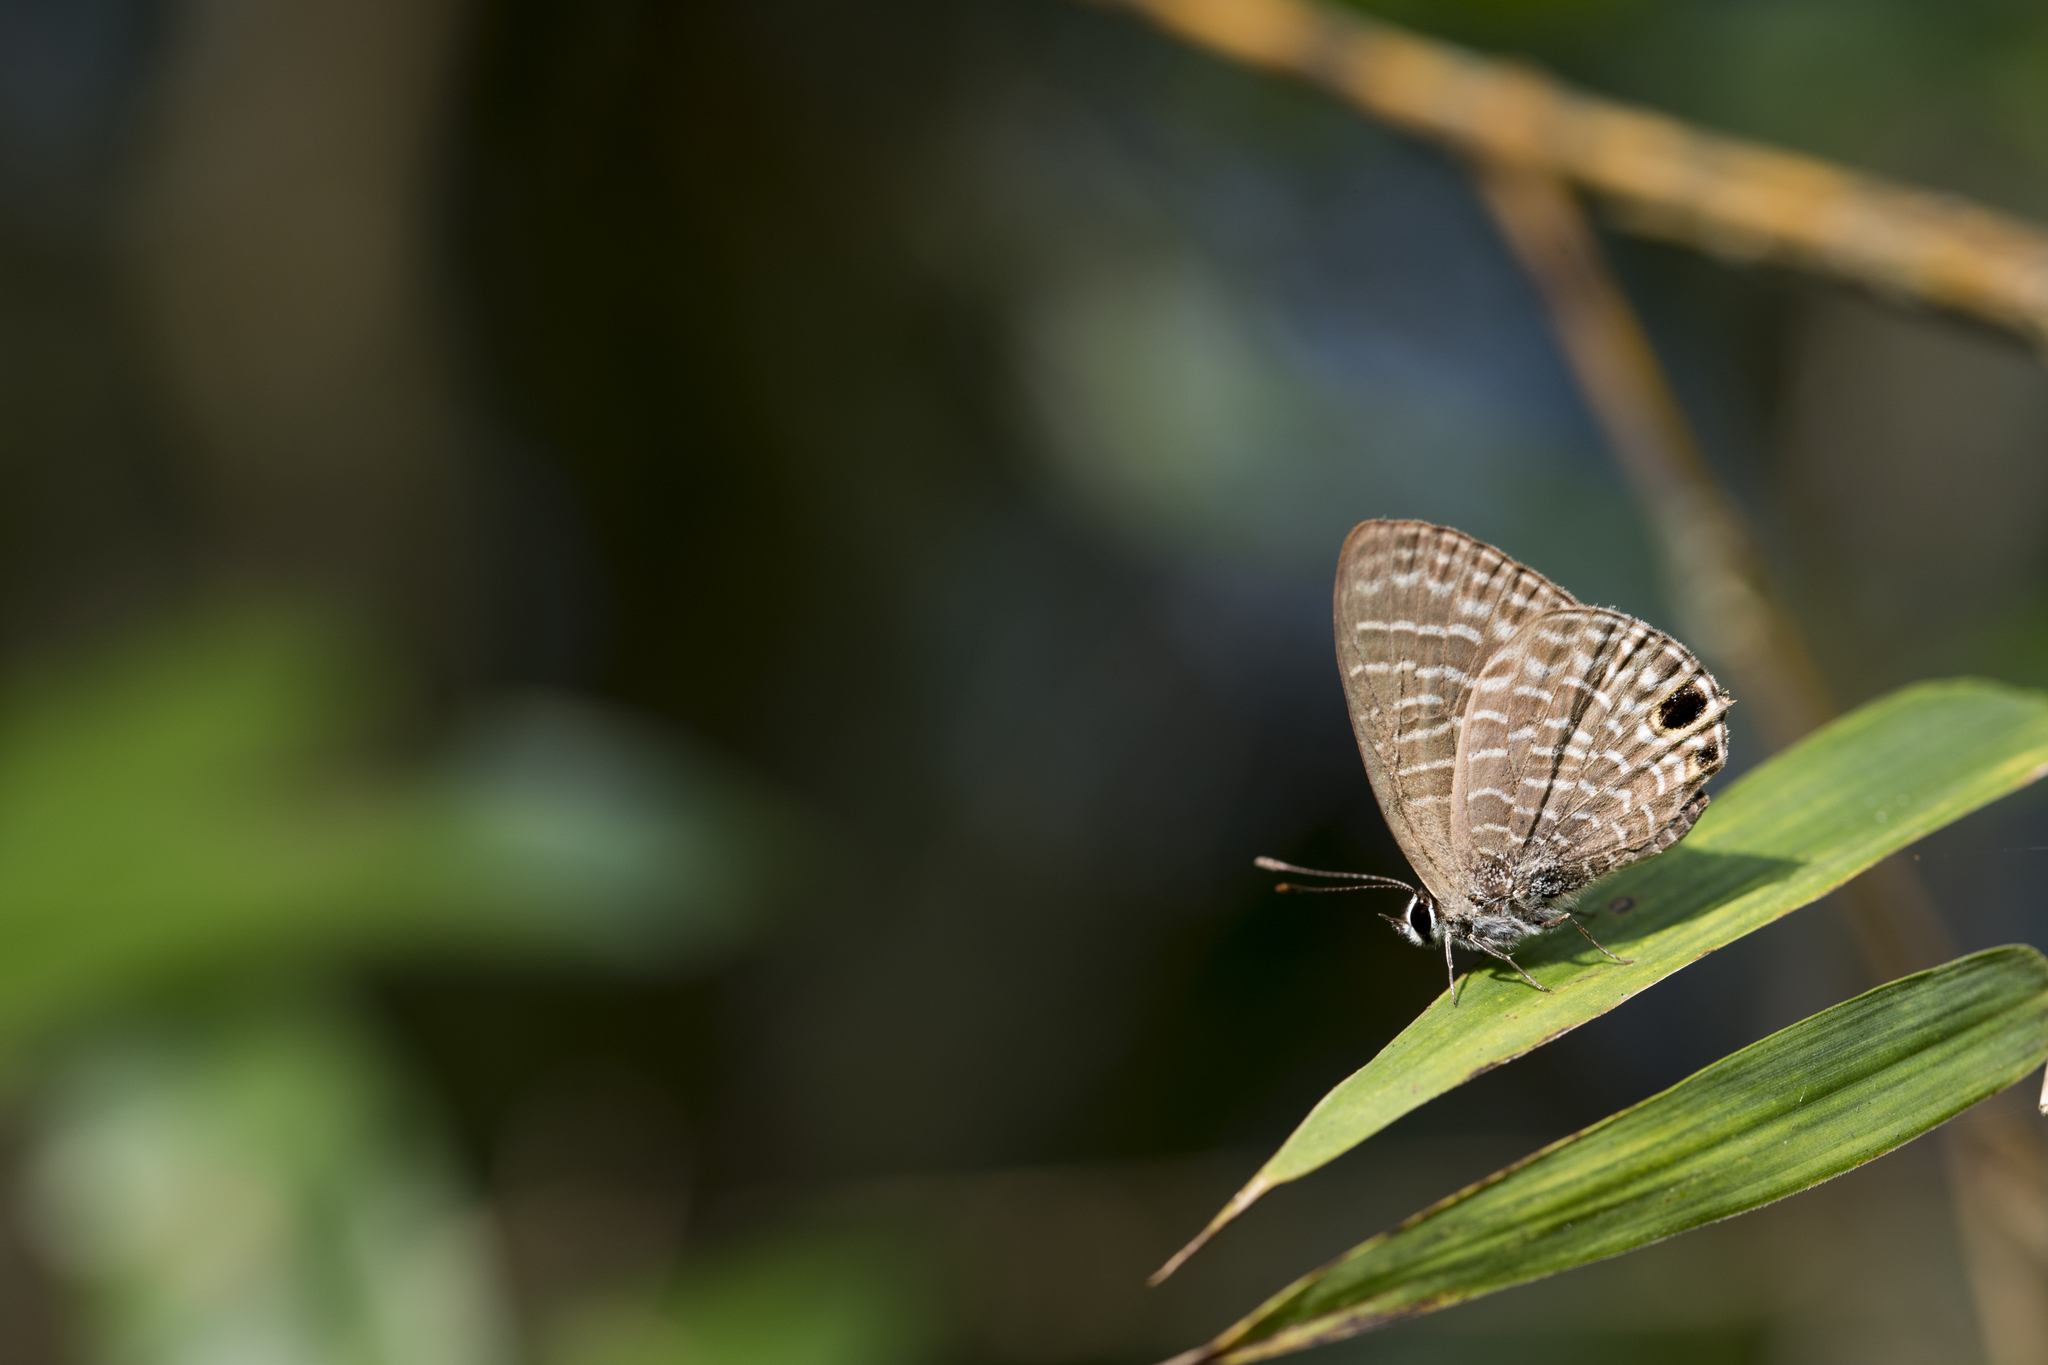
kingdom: Animalia
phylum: Arthropoda
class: Insecta
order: Lepidoptera
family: Lycaenidae
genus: Nacaduba
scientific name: Nacaduba kurava
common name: Transparent 6-line blue
